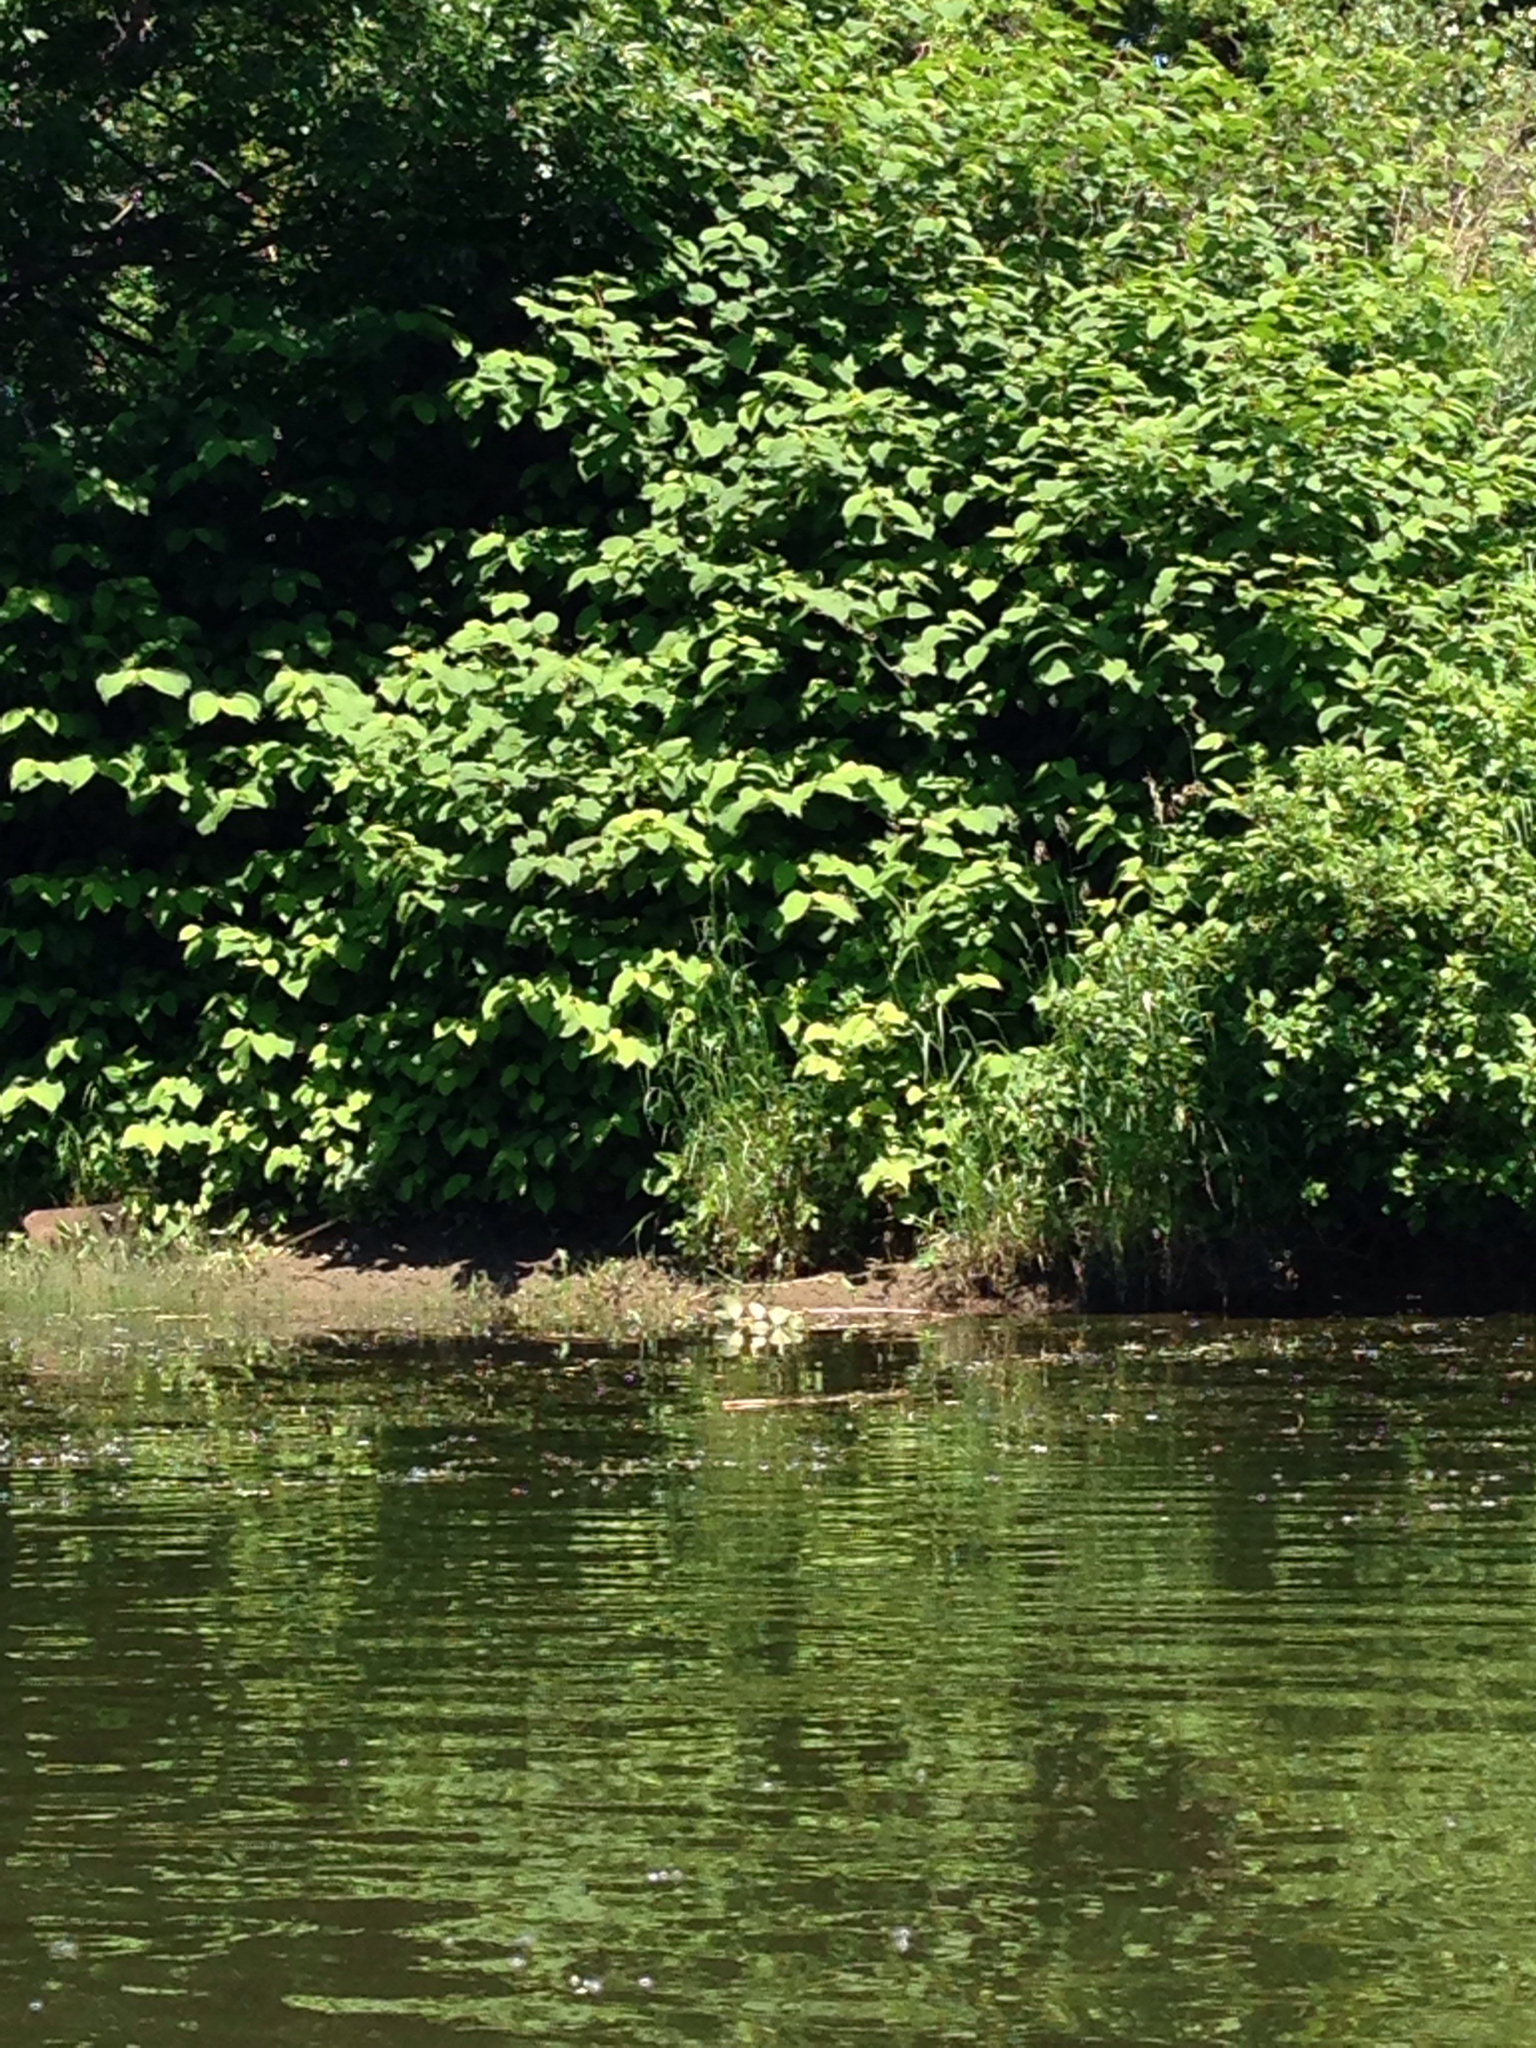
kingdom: Plantae
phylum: Tracheophyta
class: Magnoliopsida
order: Caryophyllales
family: Polygonaceae
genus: Reynoutria
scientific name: Reynoutria japonica
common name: Japanese knotweed
